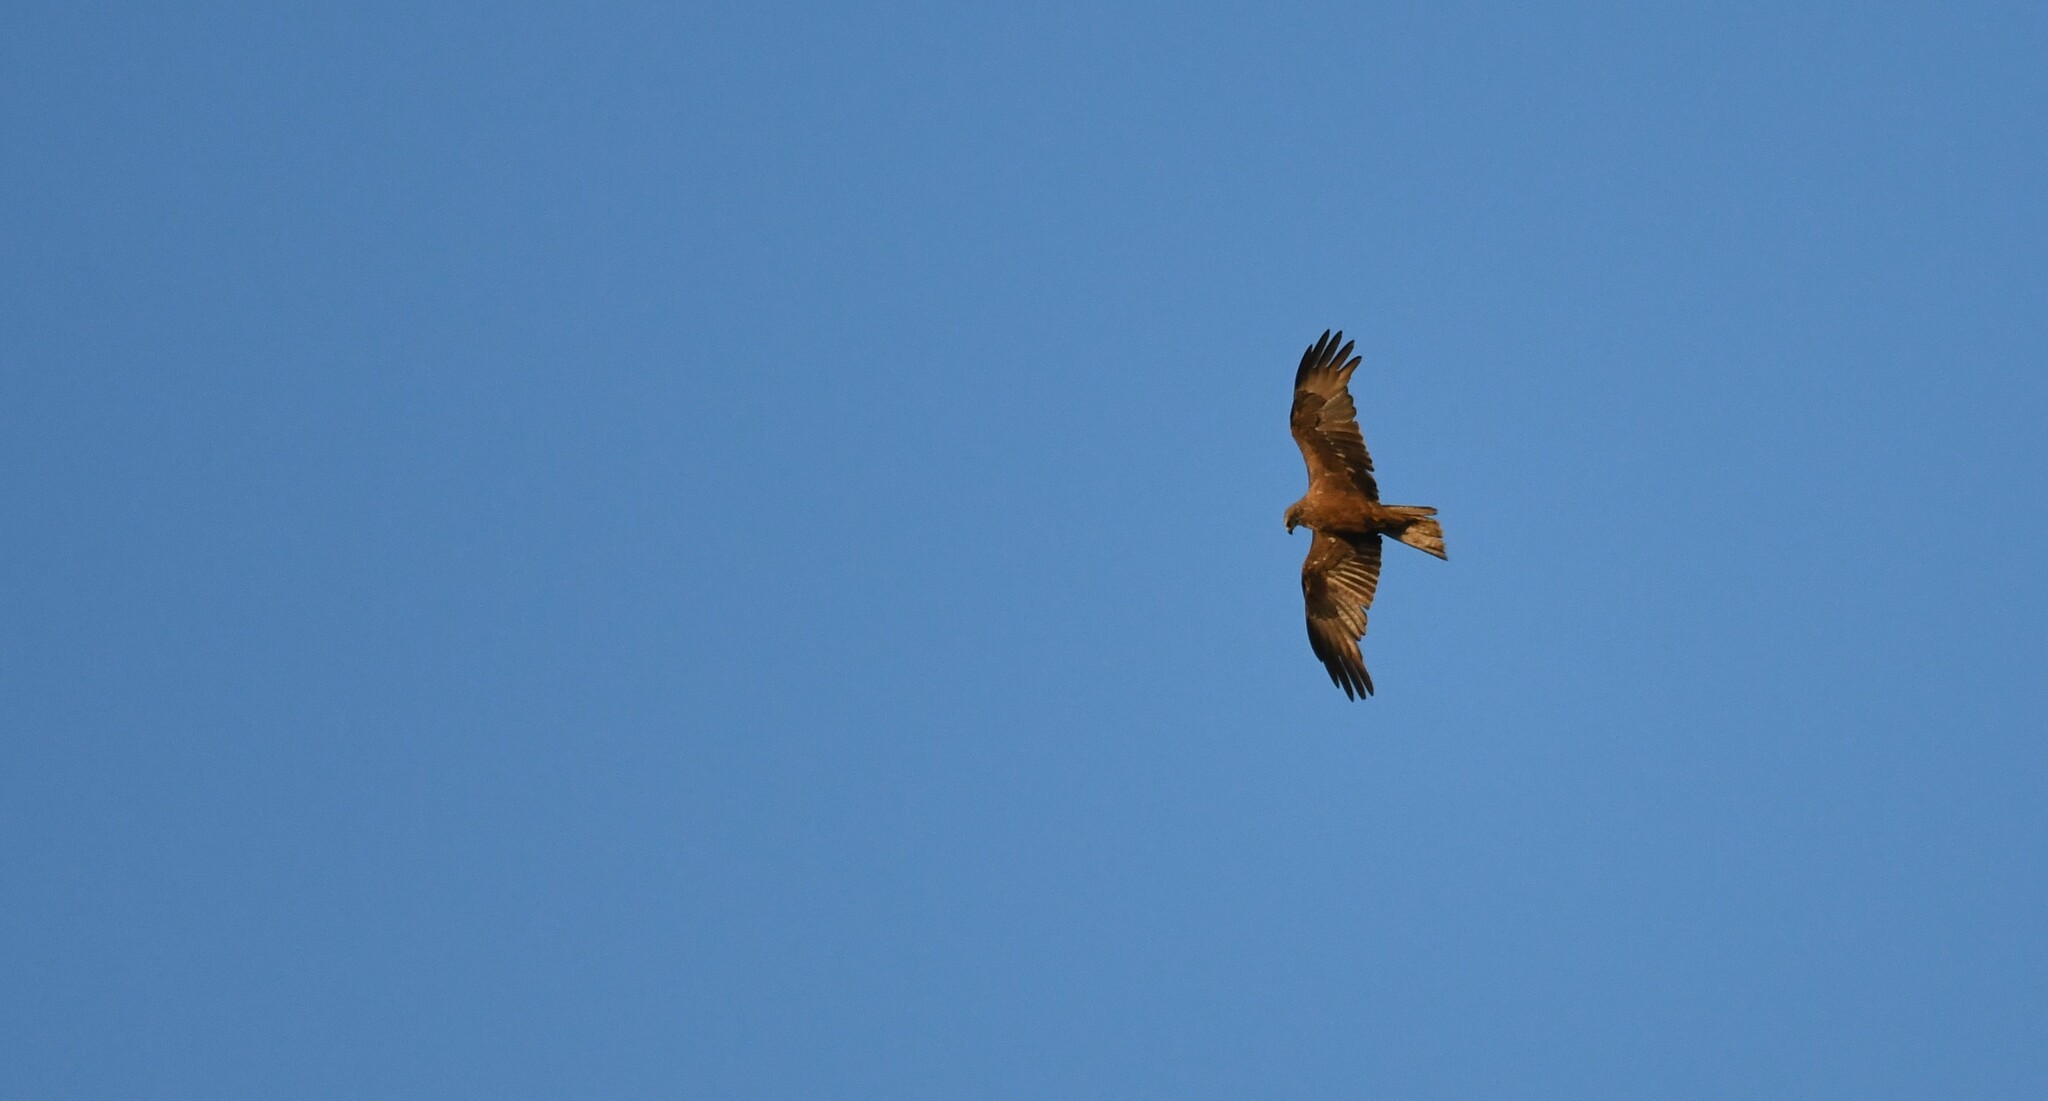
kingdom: Animalia
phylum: Chordata
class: Aves
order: Accipitriformes
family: Accipitridae
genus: Milvus
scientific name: Milvus migrans
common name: Black kite
